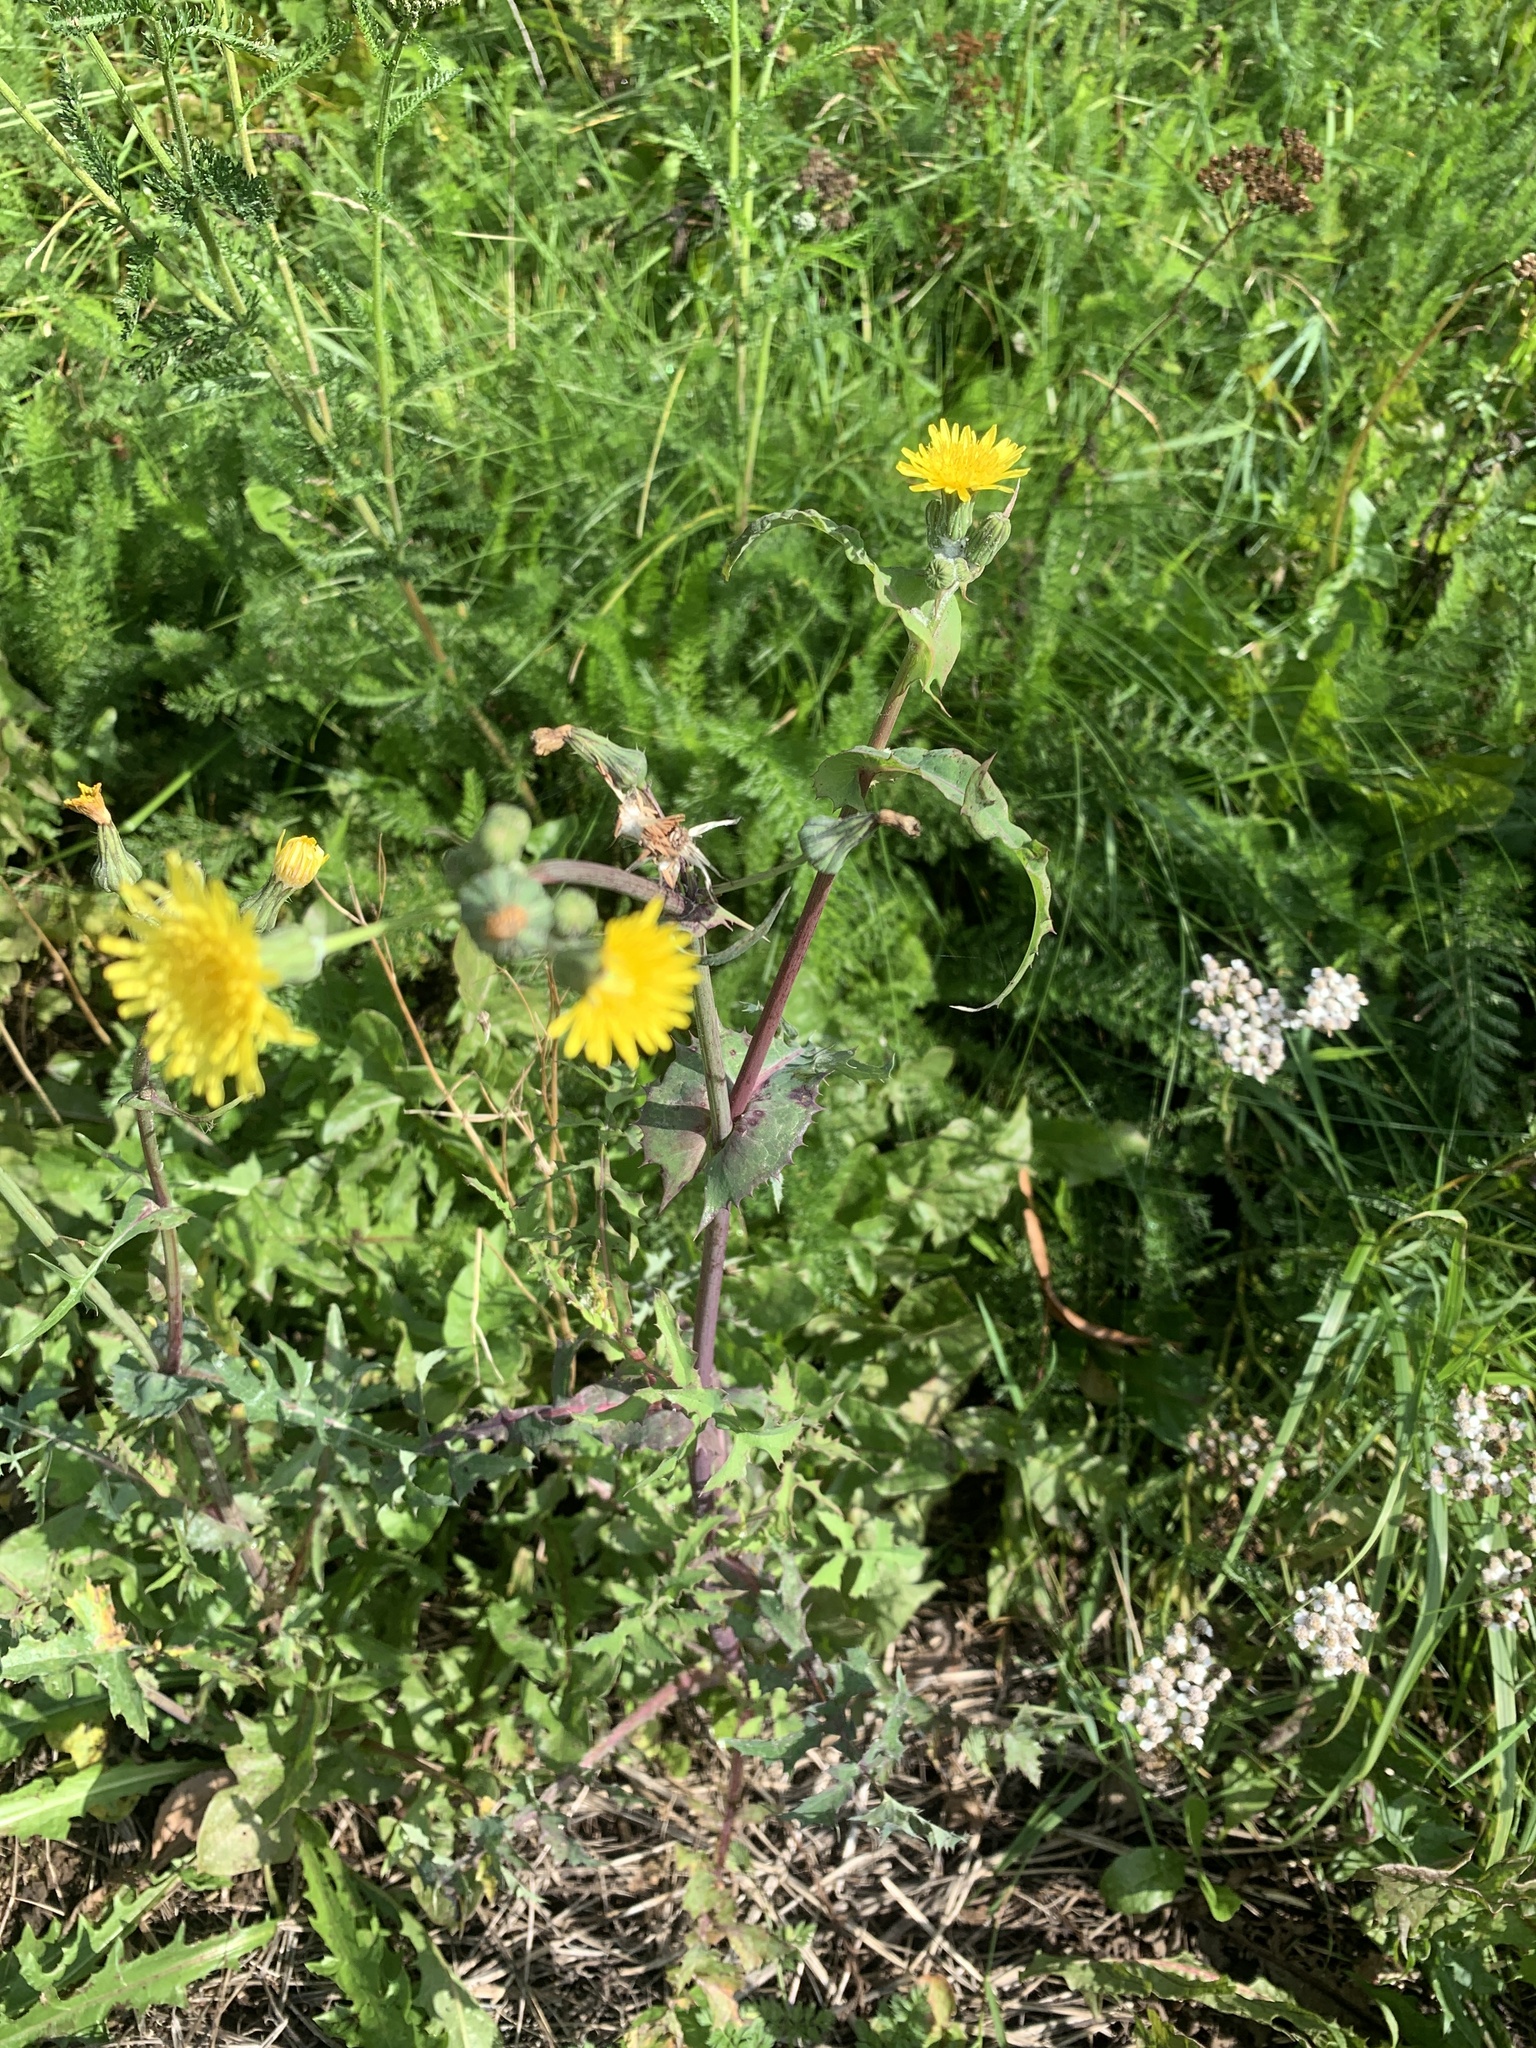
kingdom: Plantae
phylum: Tracheophyta
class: Magnoliopsida
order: Asterales
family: Asteraceae
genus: Sonchus
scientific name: Sonchus oleraceus
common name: Common sowthistle
